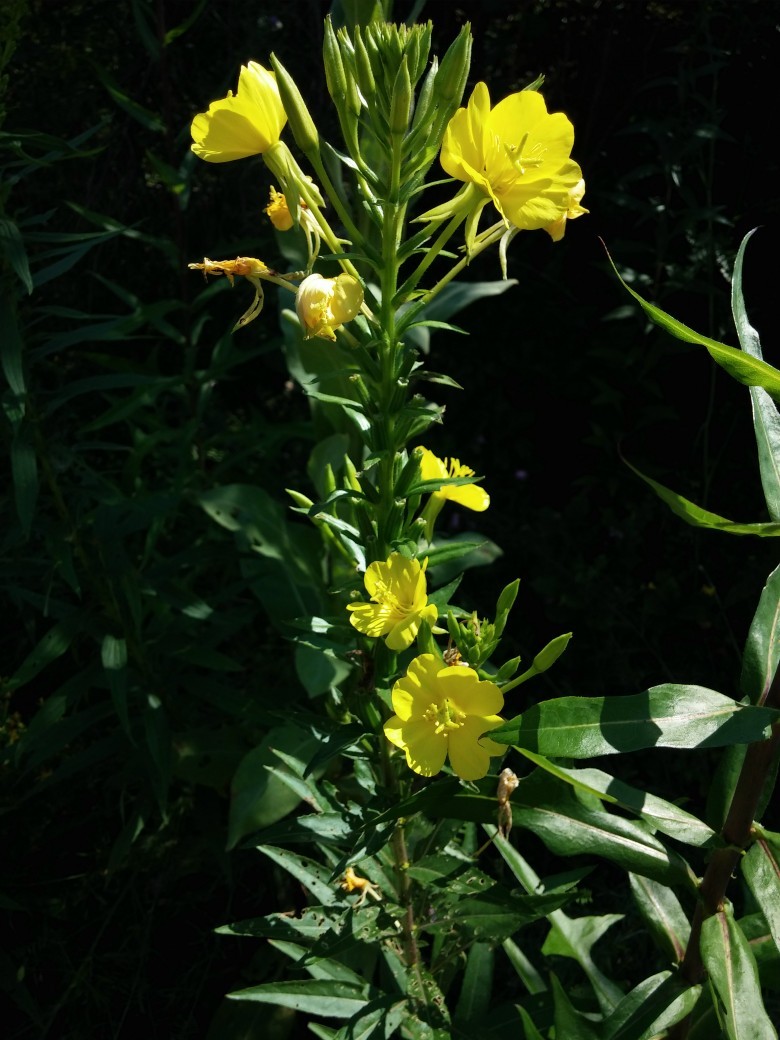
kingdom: Plantae
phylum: Tracheophyta
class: Magnoliopsida
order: Myrtales
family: Onagraceae
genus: Oenothera
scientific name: Oenothera biennis
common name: Common evening-primrose
